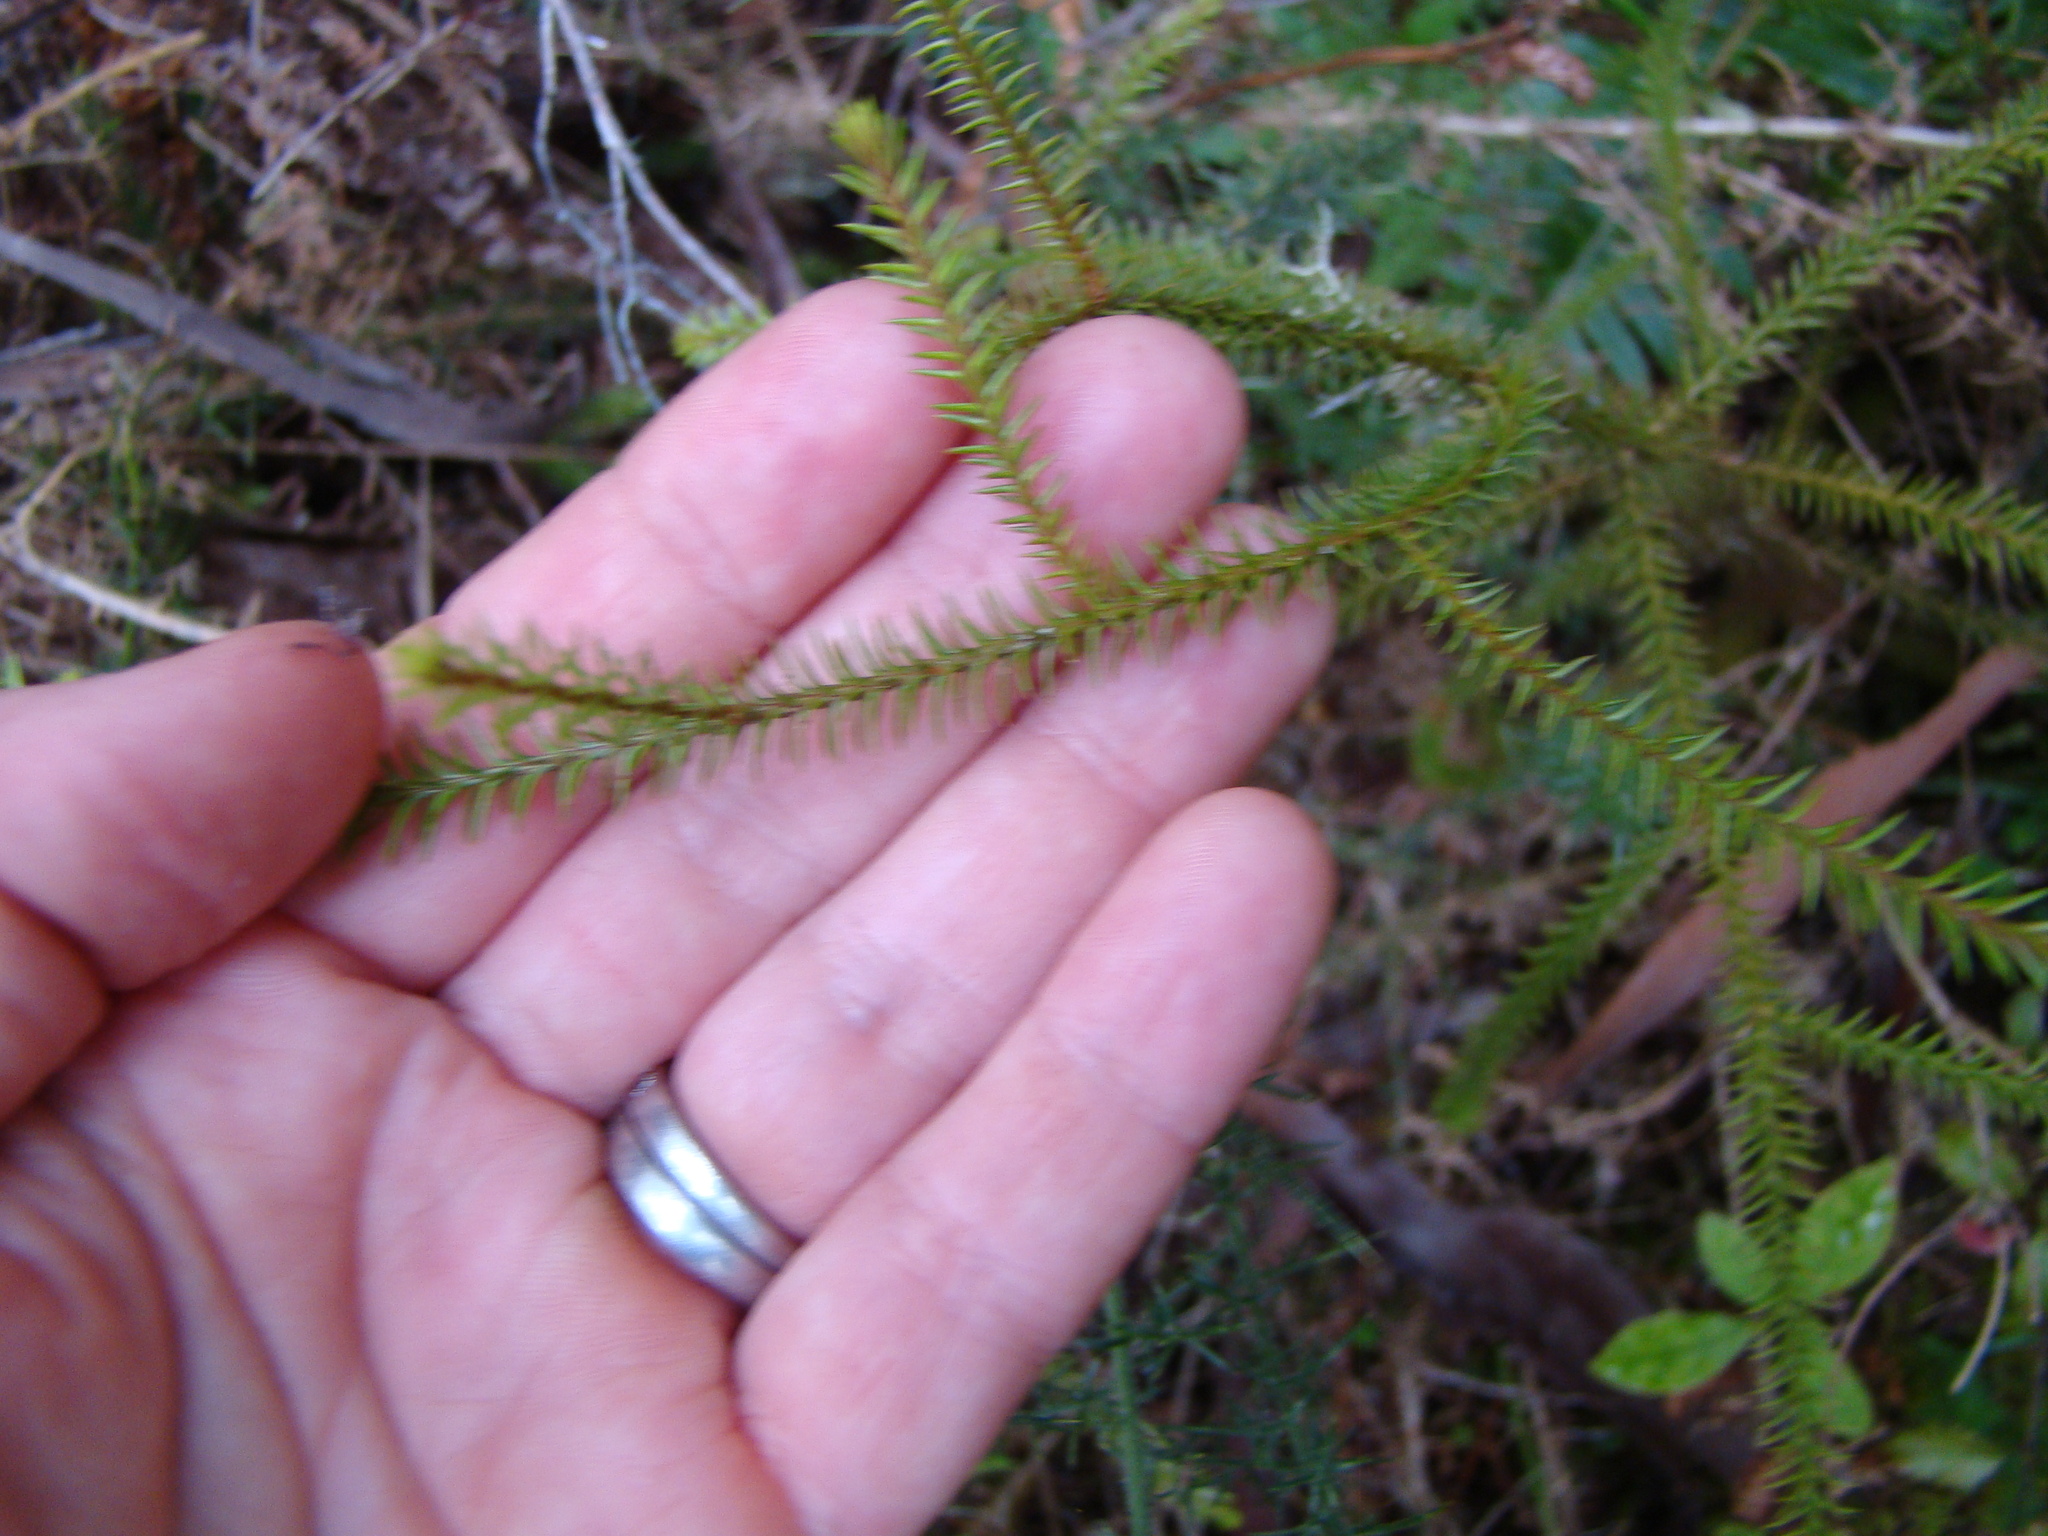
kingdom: Plantae
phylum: Tracheophyta
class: Pinopsida
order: Pinales
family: Podocarpaceae
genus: Dacrydium
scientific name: Dacrydium cupressinum
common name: Red pine
